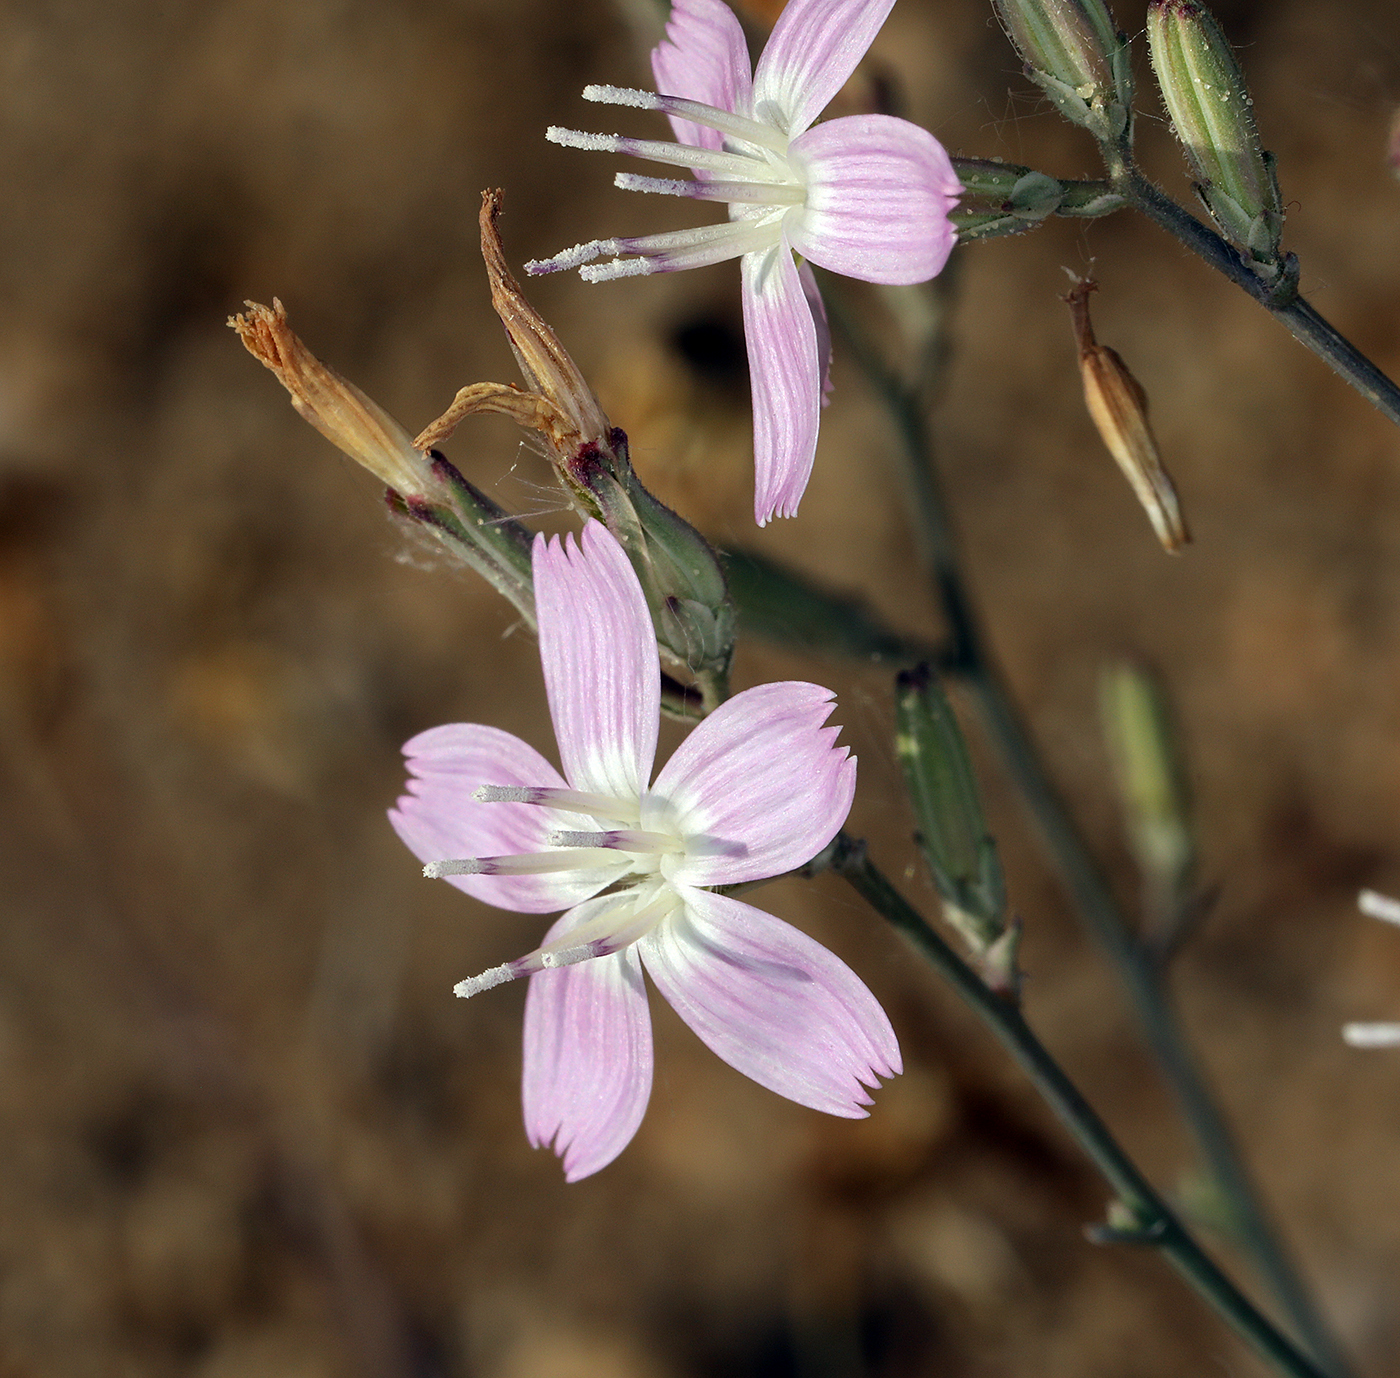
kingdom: Plantae
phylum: Tracheophyta
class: Magnoliopsida
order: Asterales
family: Asteraceae
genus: Stephanomeria
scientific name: Stephanomeria exigua
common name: Small wirelettuce
